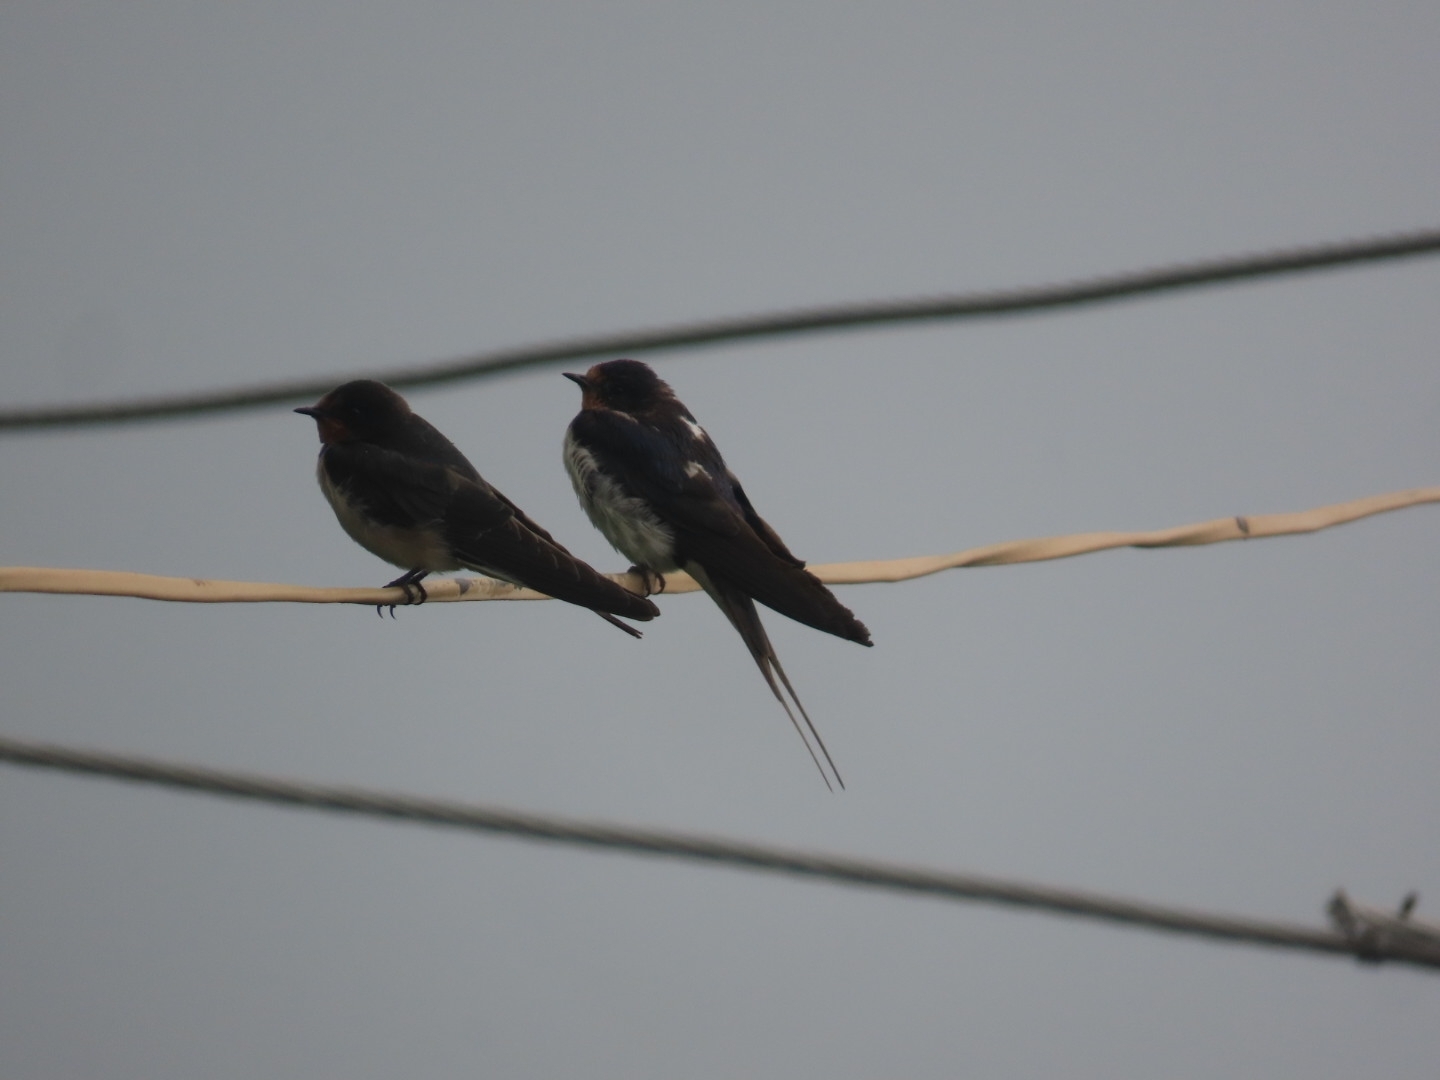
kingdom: Animalia
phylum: Chordata
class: Aves
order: Passeriformes
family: Hirundinidae
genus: Hirundo
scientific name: Hirundo rustica
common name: Barn swallow
